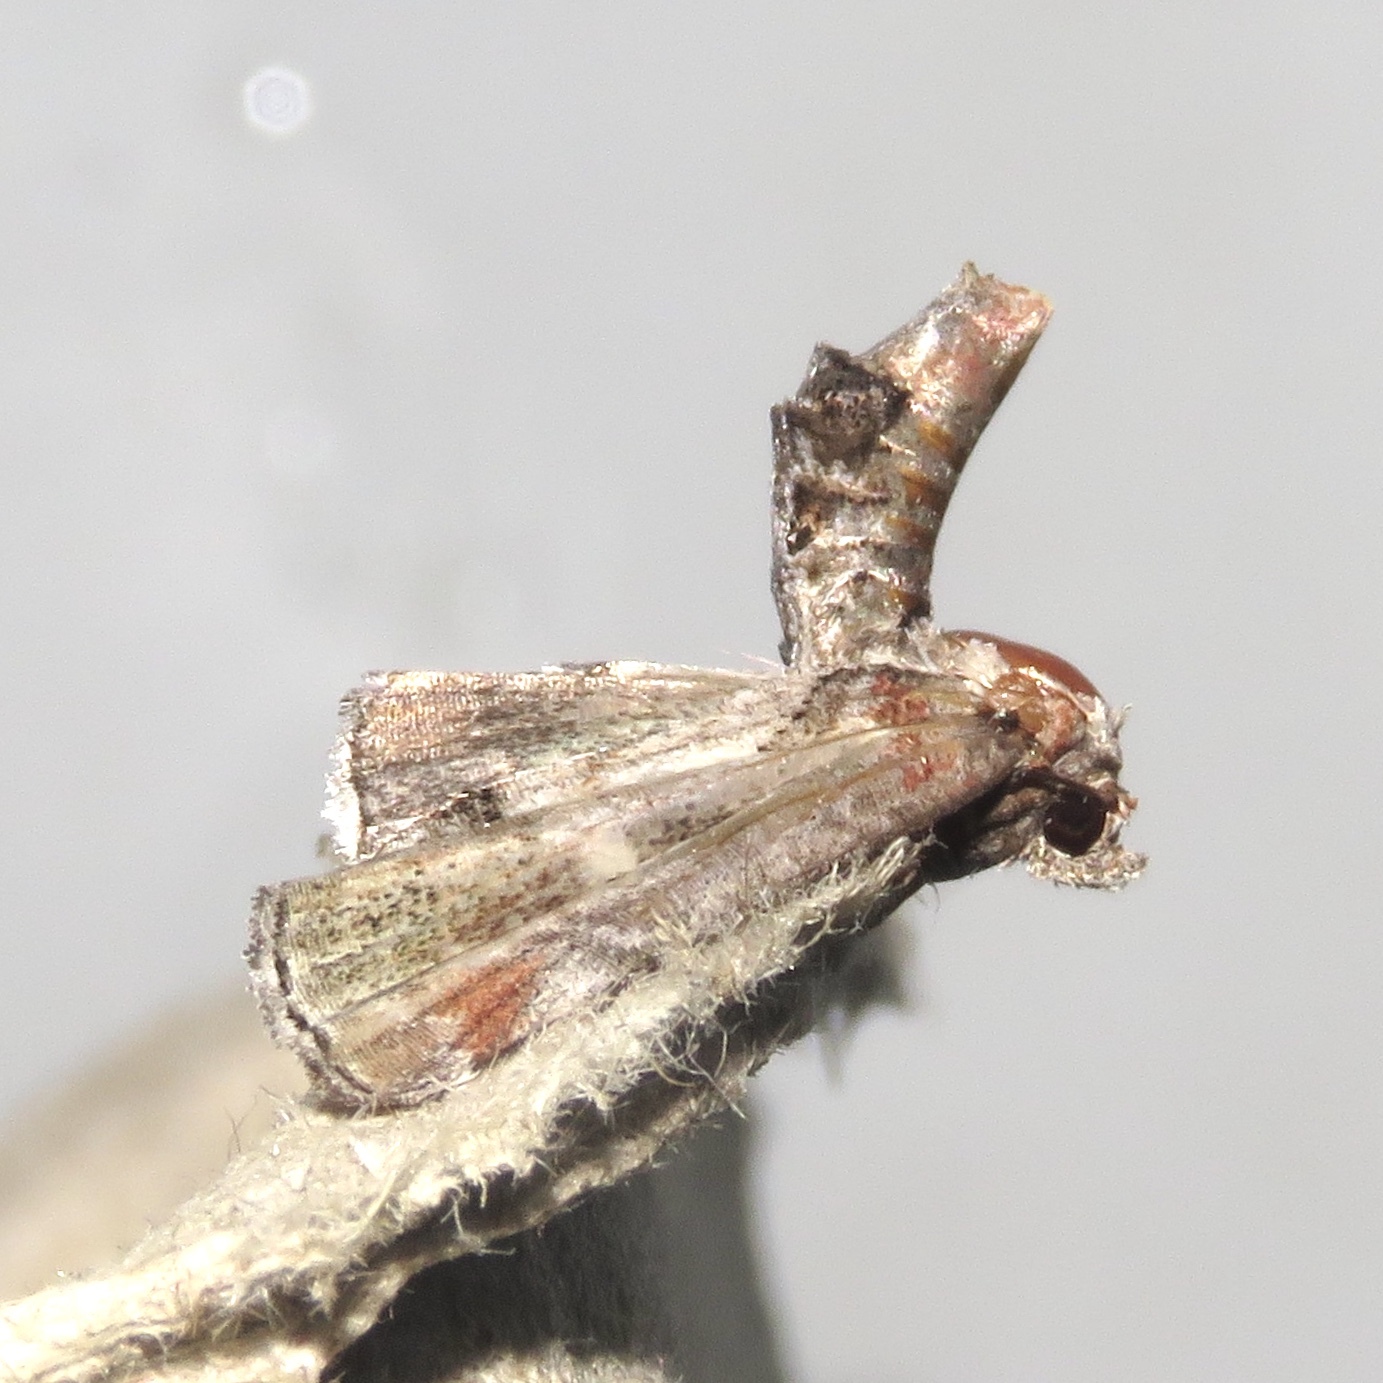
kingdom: Animalia
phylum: Arthropoda
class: Insecta
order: Lepidoptera
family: Euteliidae
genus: Marathyssa
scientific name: Marathyssa inficita
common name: Dark marathyssa moth
